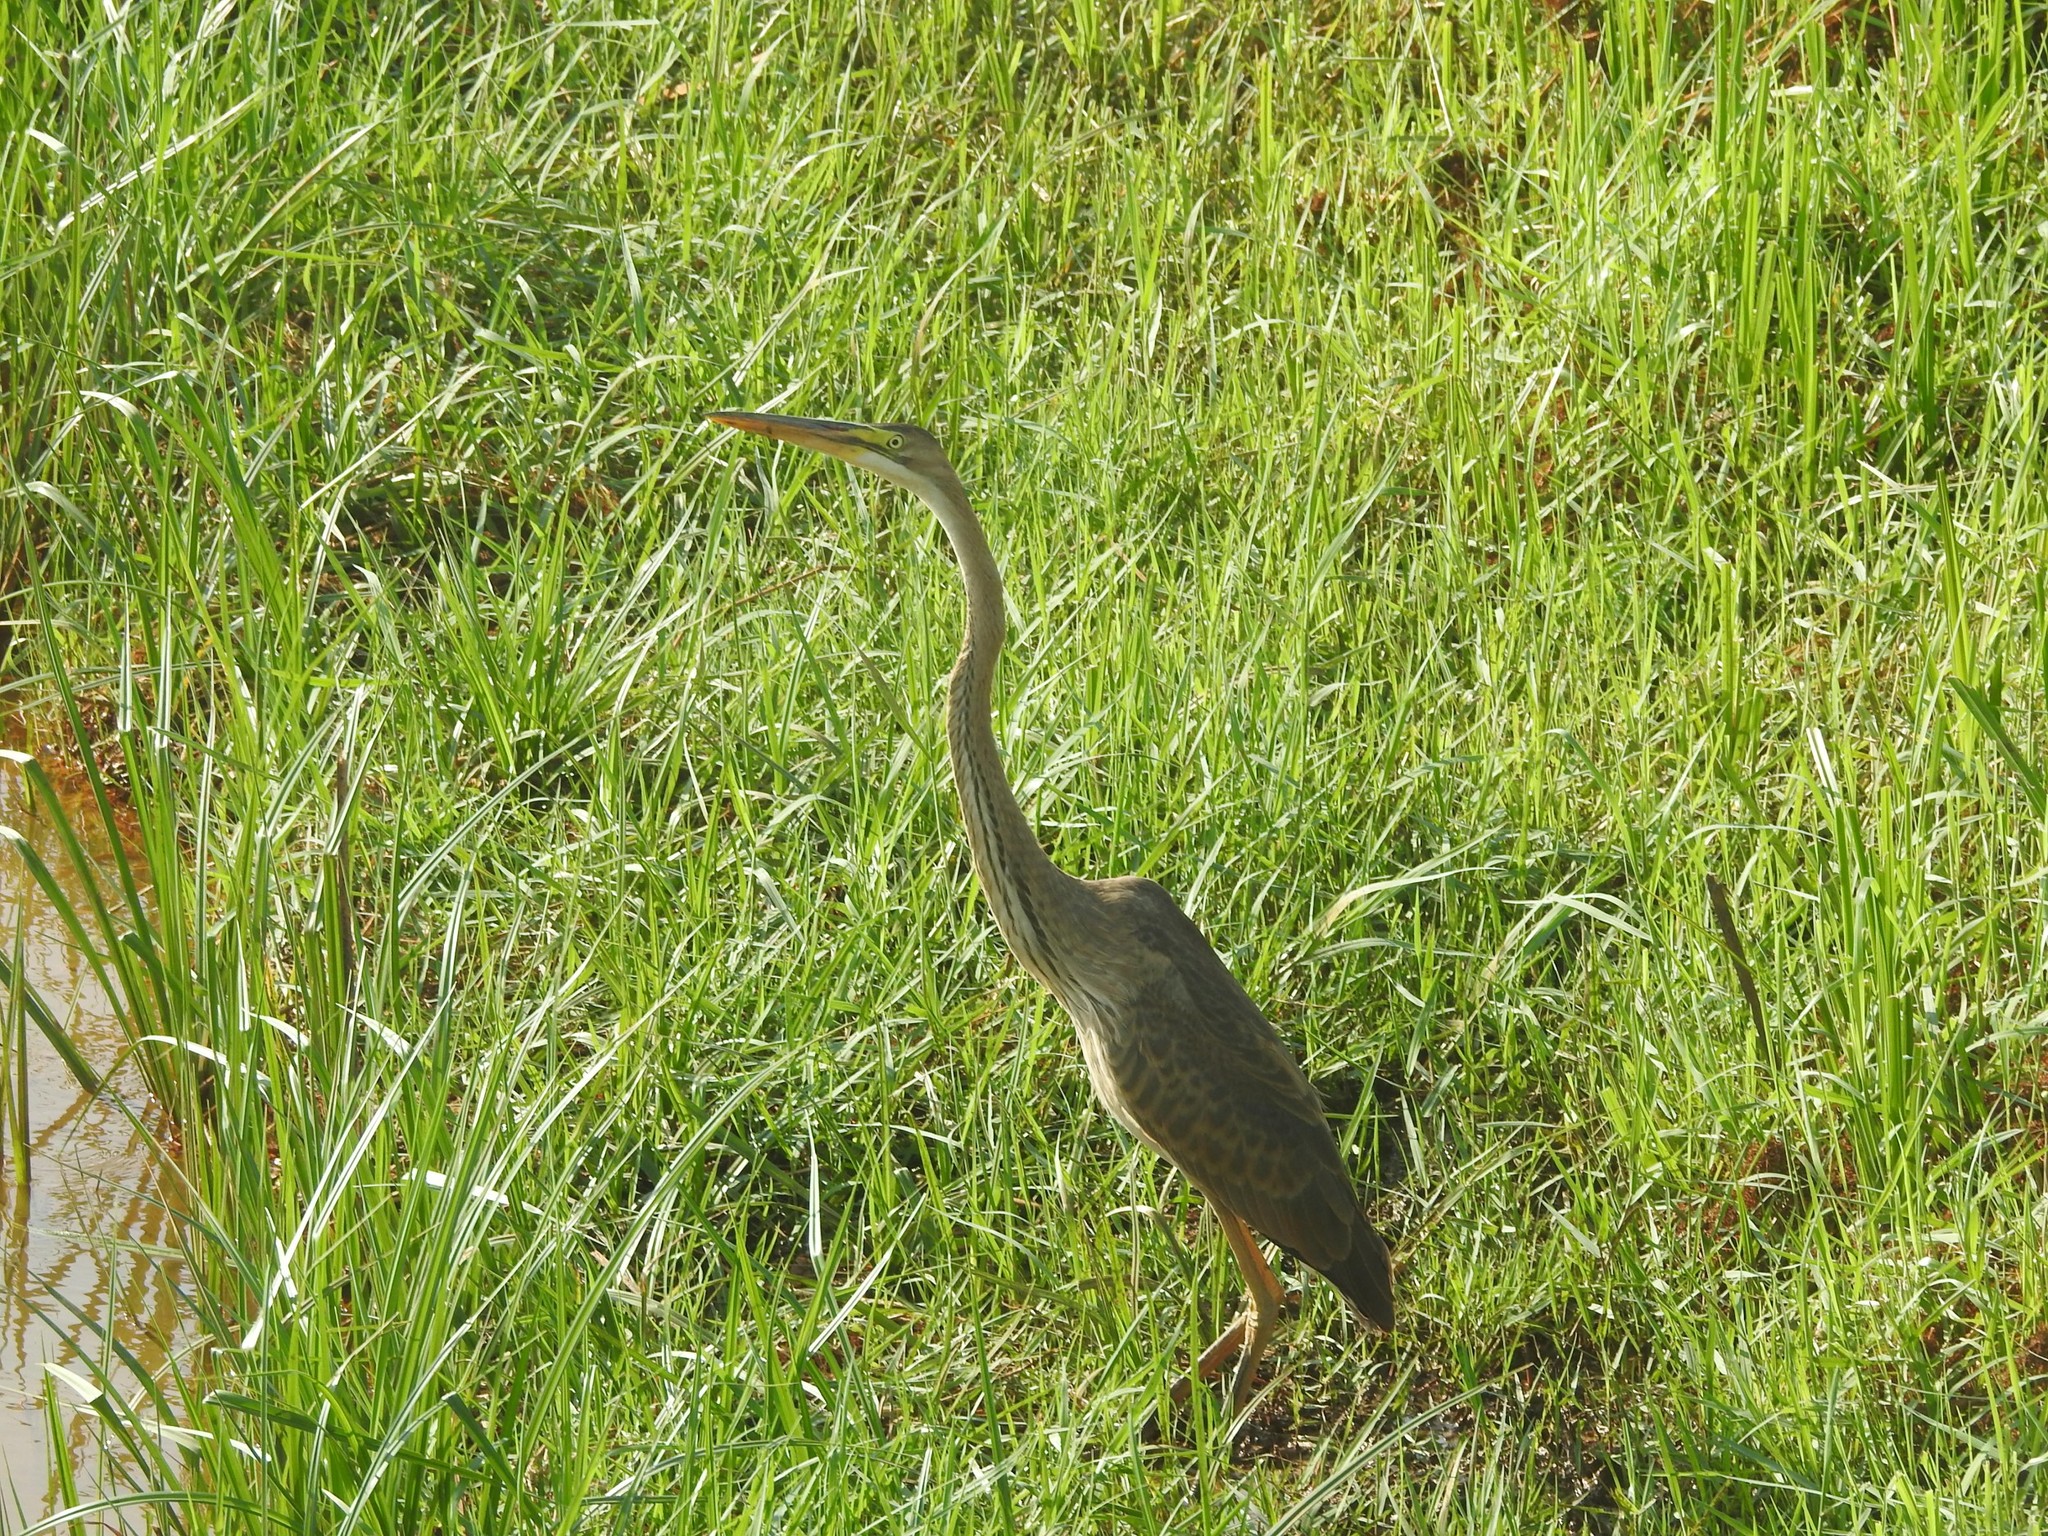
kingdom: Animalia
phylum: Chordata
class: Aves
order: Pelecaniformes
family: Ardeidae
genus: Ardea
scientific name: Ardea purpurea
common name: Purple heron
